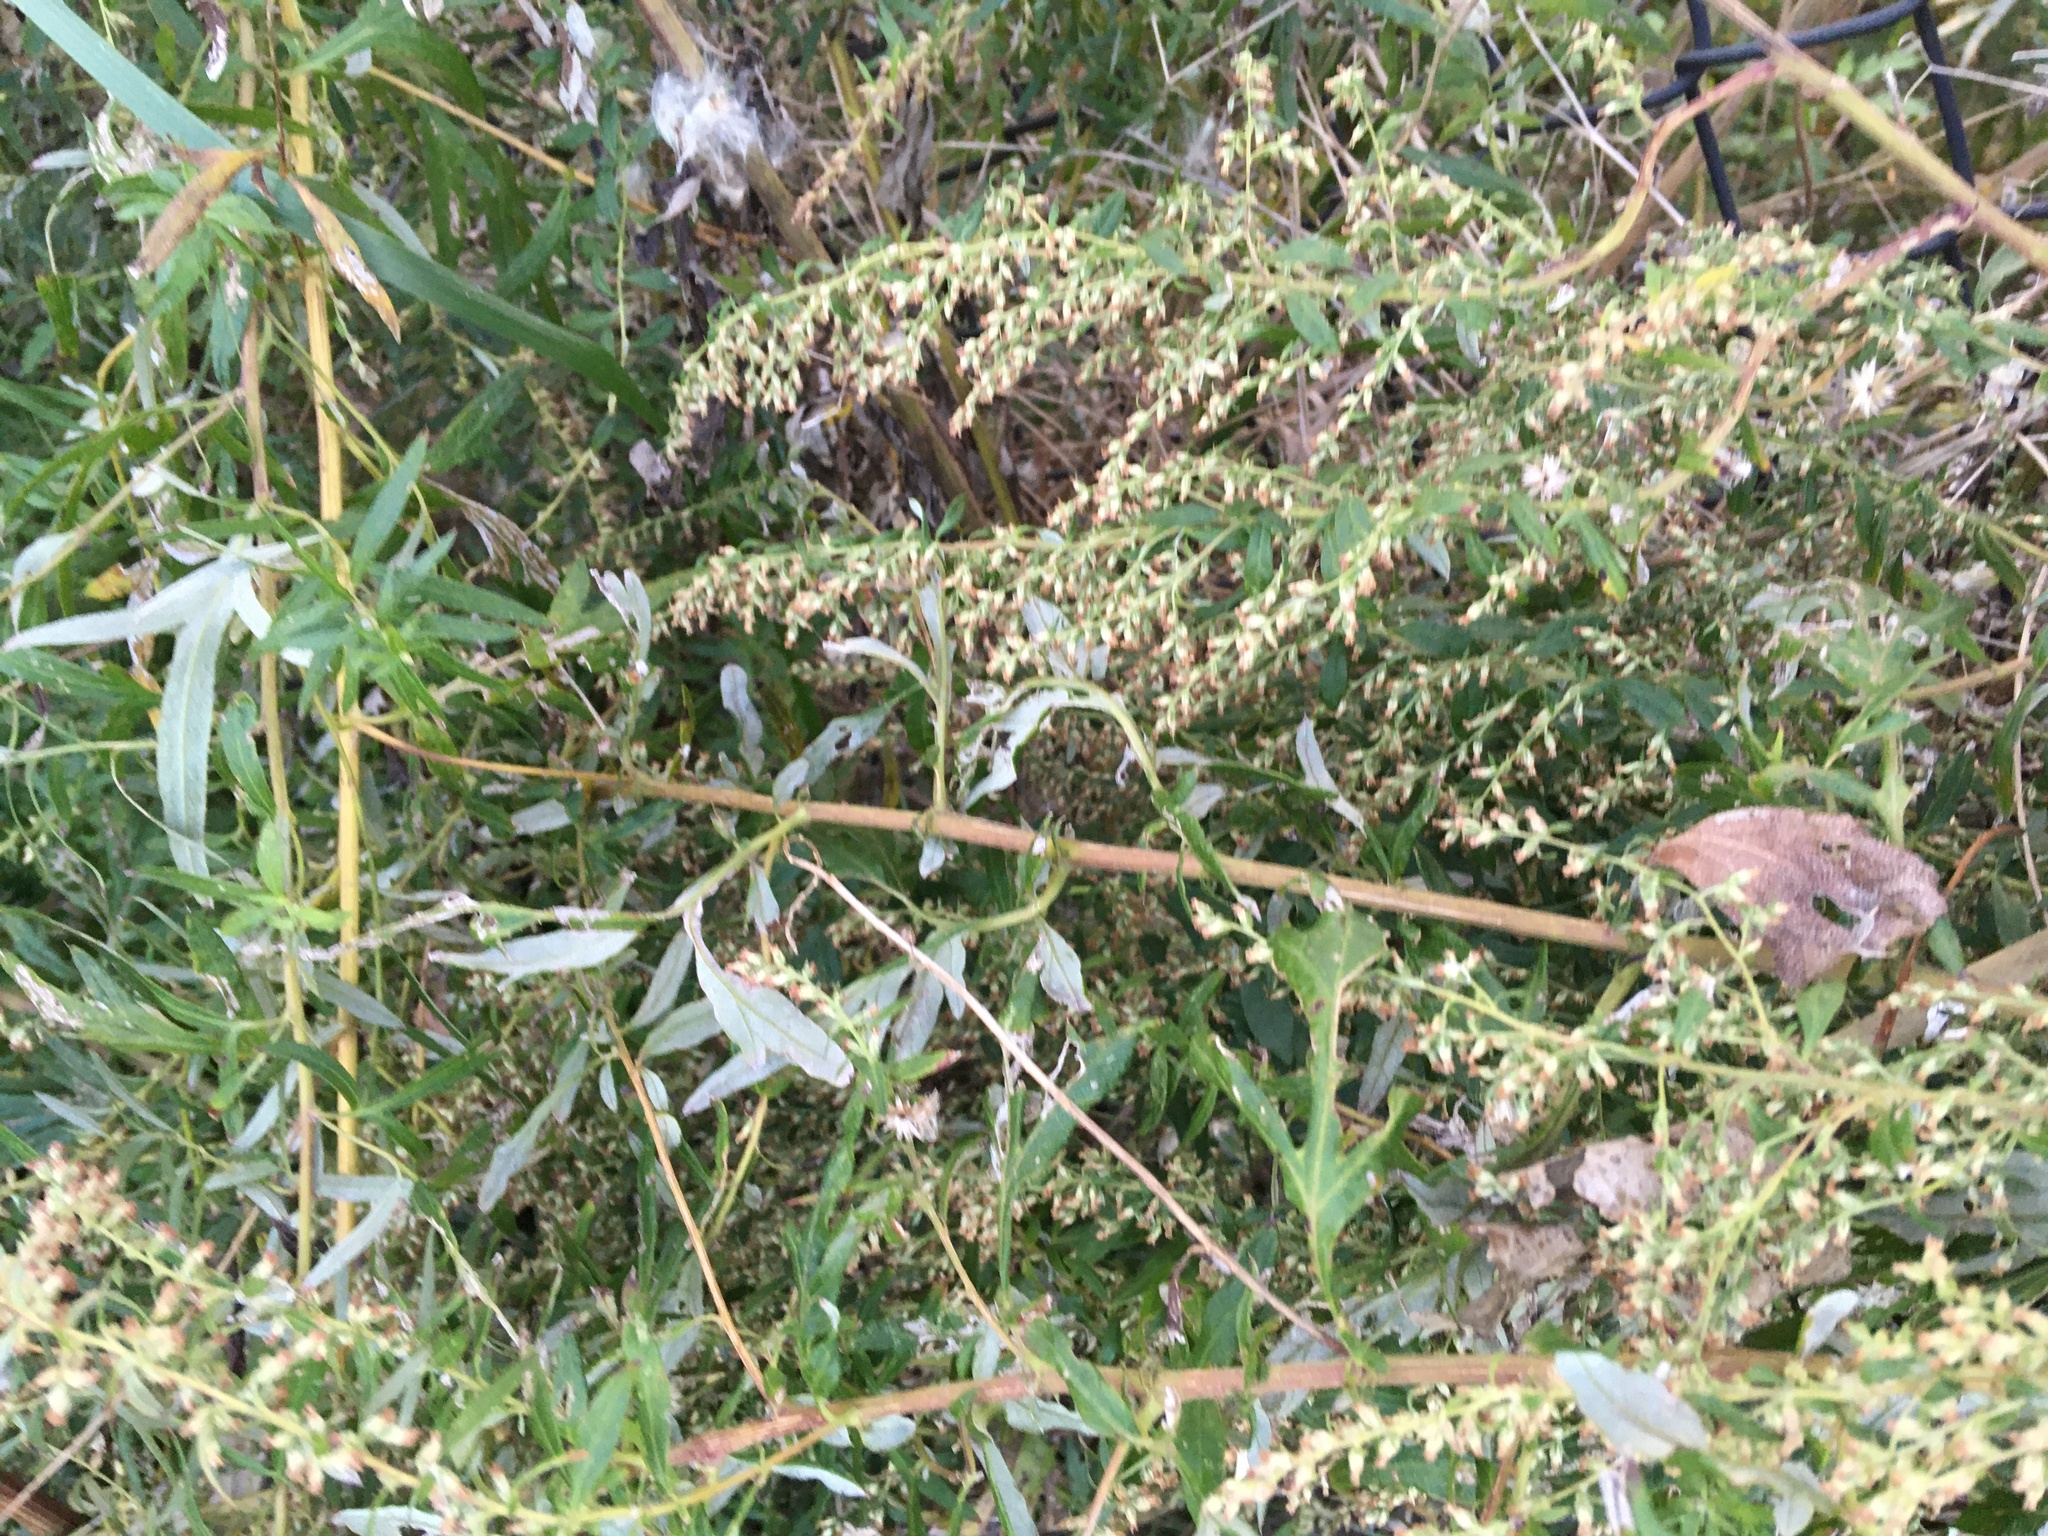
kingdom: Plantae
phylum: Tracheophyta
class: Magnoliopsida
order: Asterales
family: Asteraceae
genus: Artemisia
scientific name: Artemisia vulgaris
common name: Mugwort
